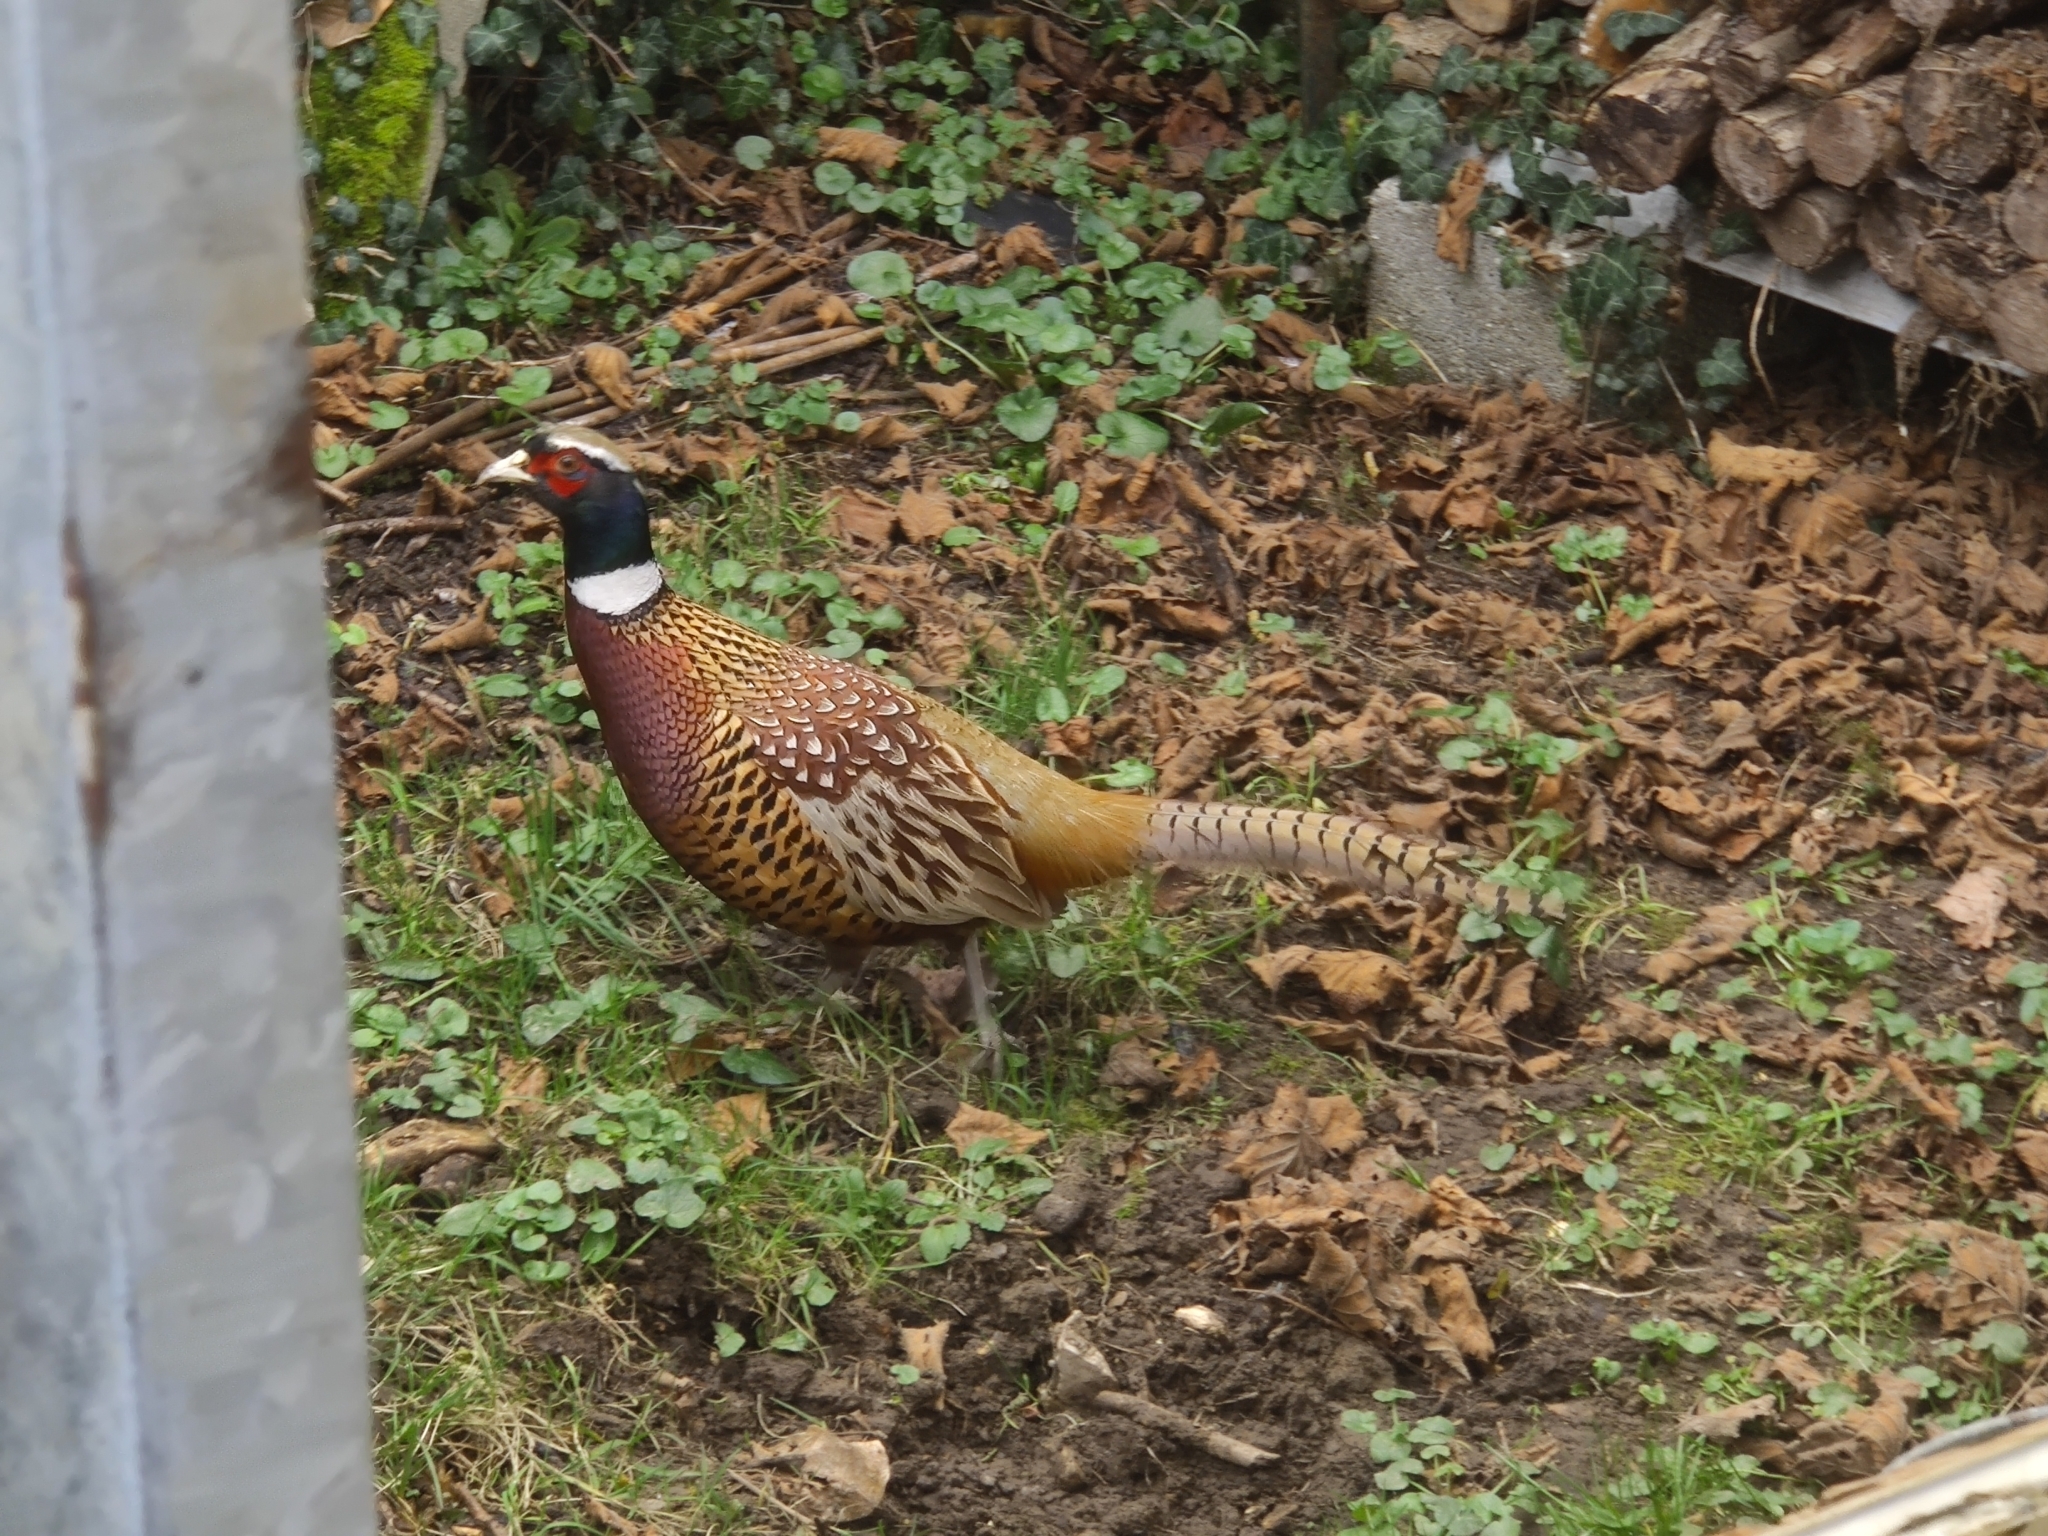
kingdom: Animalia
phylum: Chordata
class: Aves
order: Galliformes
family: Phasianidae
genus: Phasianus
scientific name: Phasianus colchicus
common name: Common pheasant
